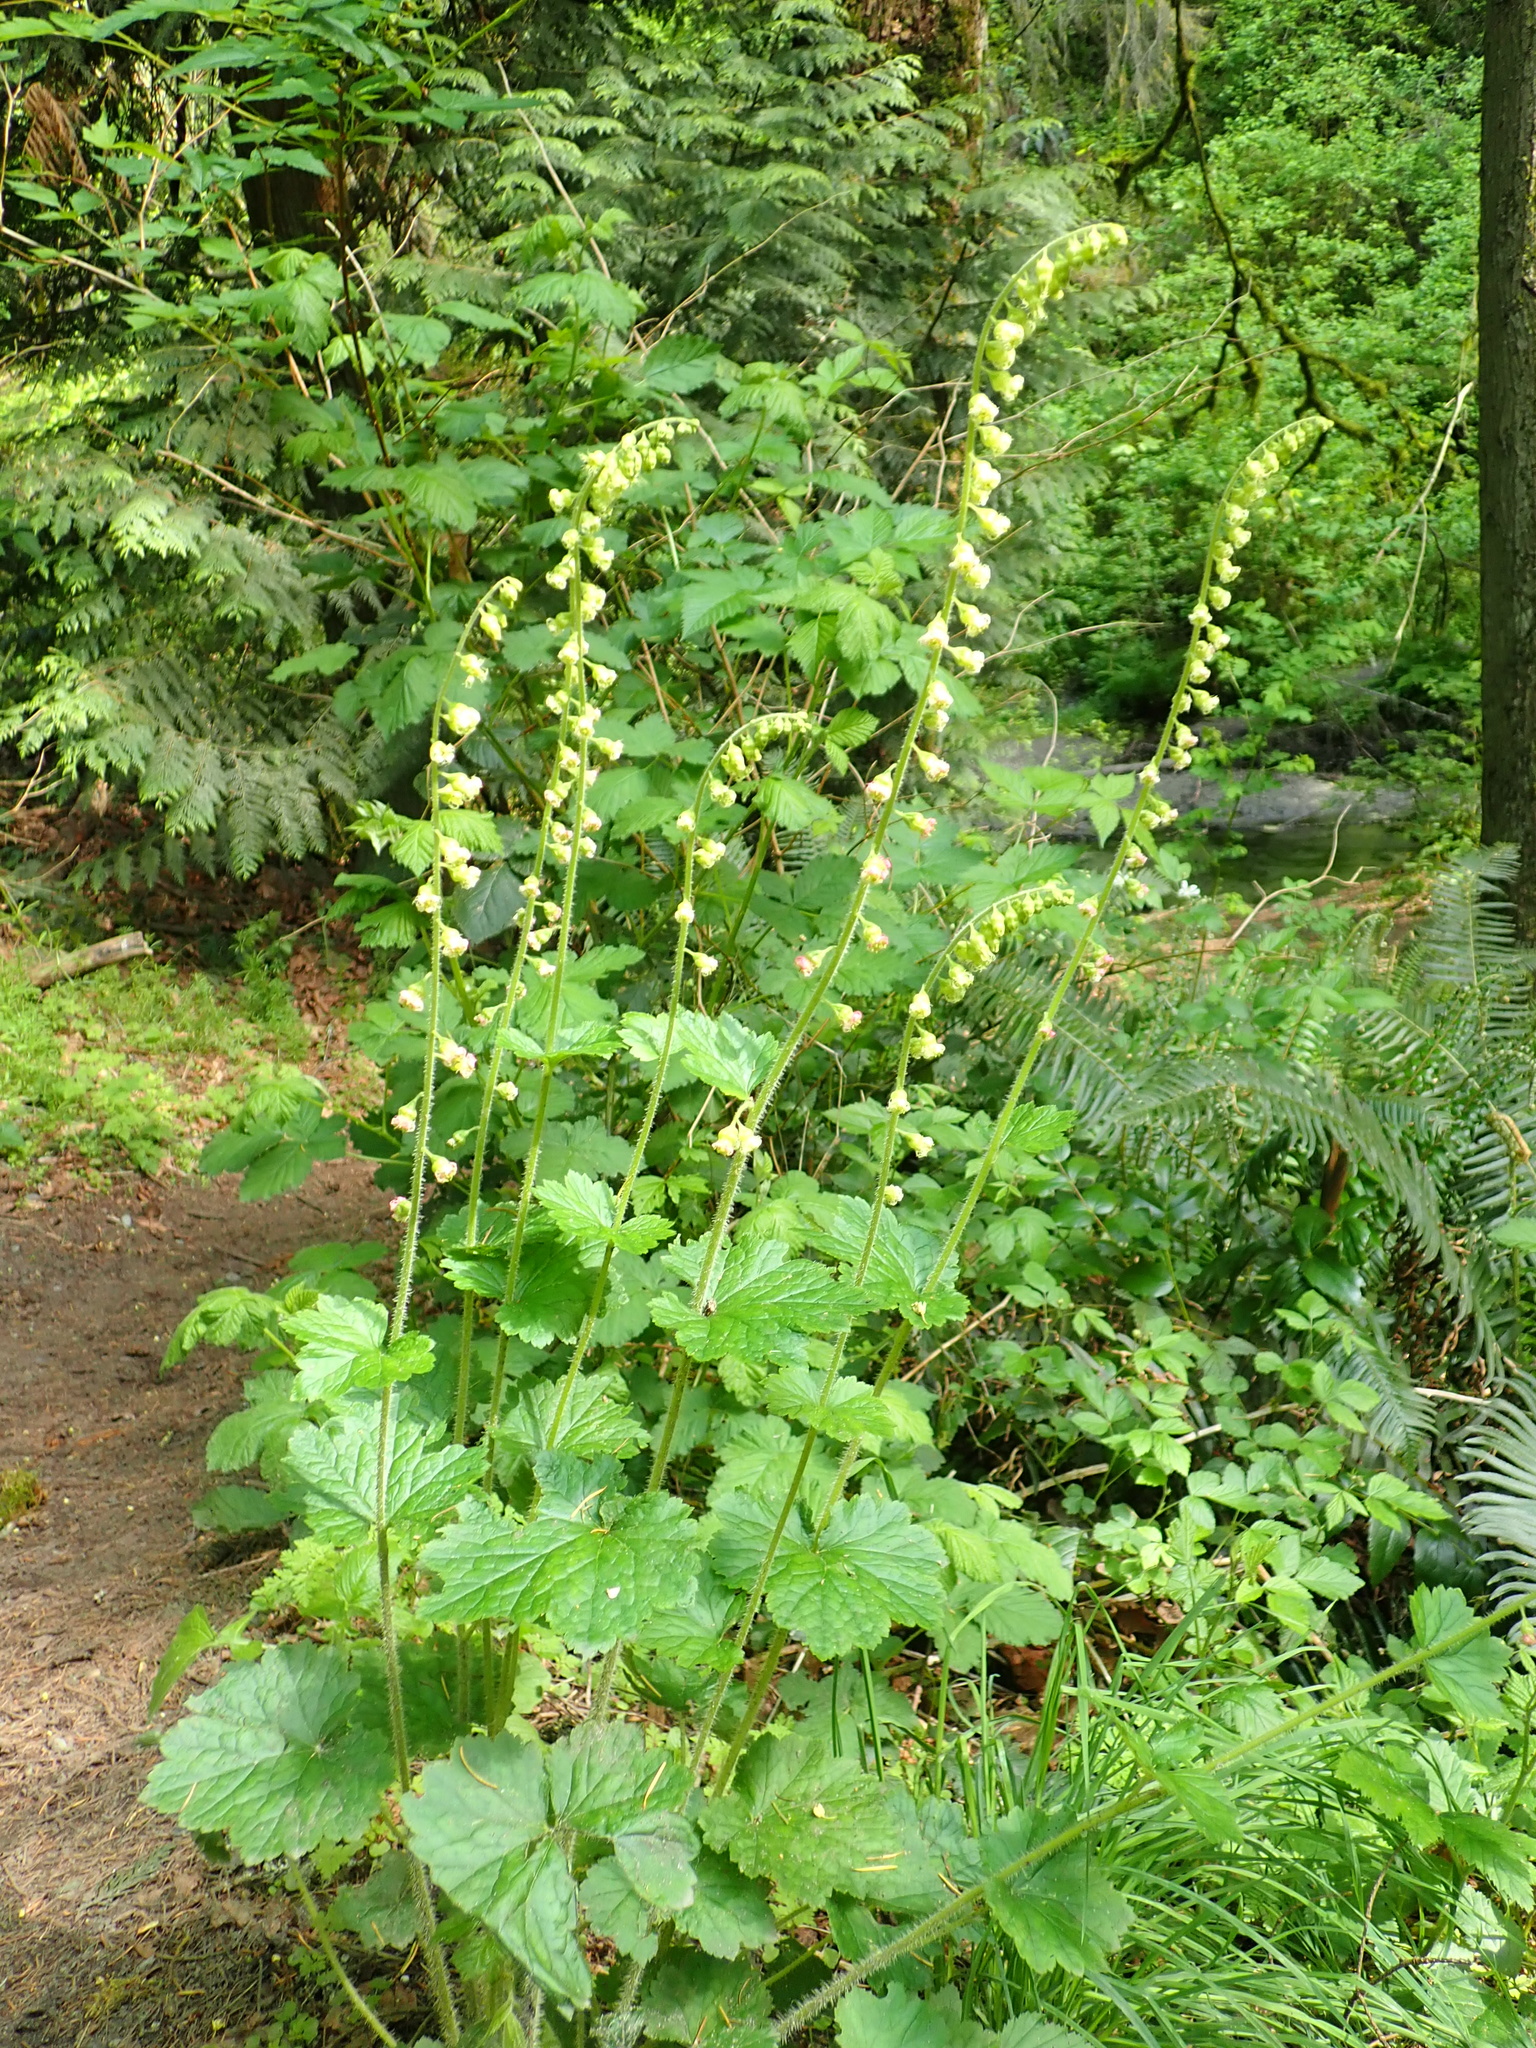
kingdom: Plantae
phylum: Tracheophyta
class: Magnoliopsida
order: Saxifragales
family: Saxifragaceae
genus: Tellima
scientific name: Tellima grandiflora
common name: Fringecups
